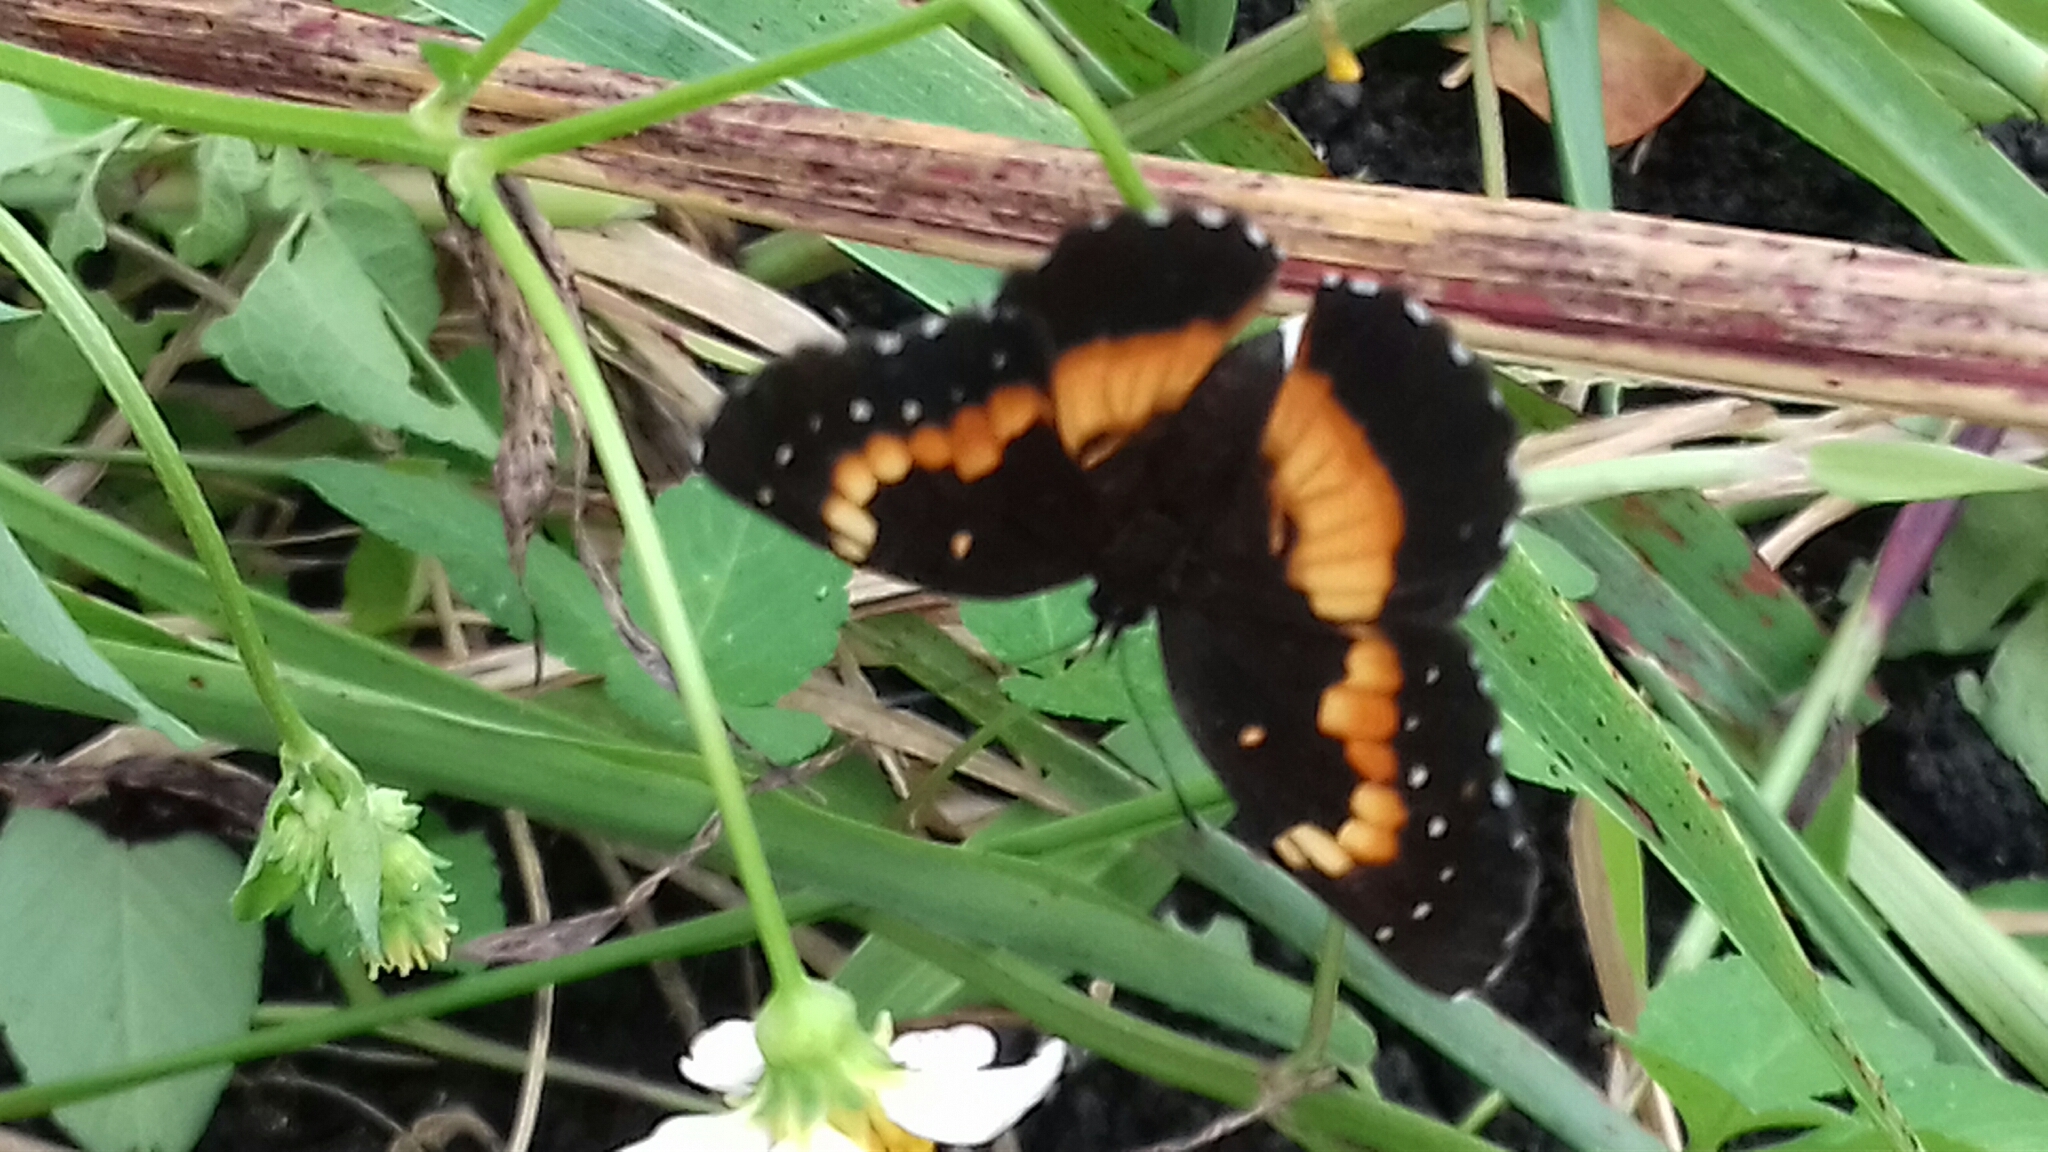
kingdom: Animalia
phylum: Arthropoda
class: Insecta
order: Lepidoptera
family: Nymphalidae
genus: Chlosyne
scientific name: Chlosyne lacinia
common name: Bordered patch
